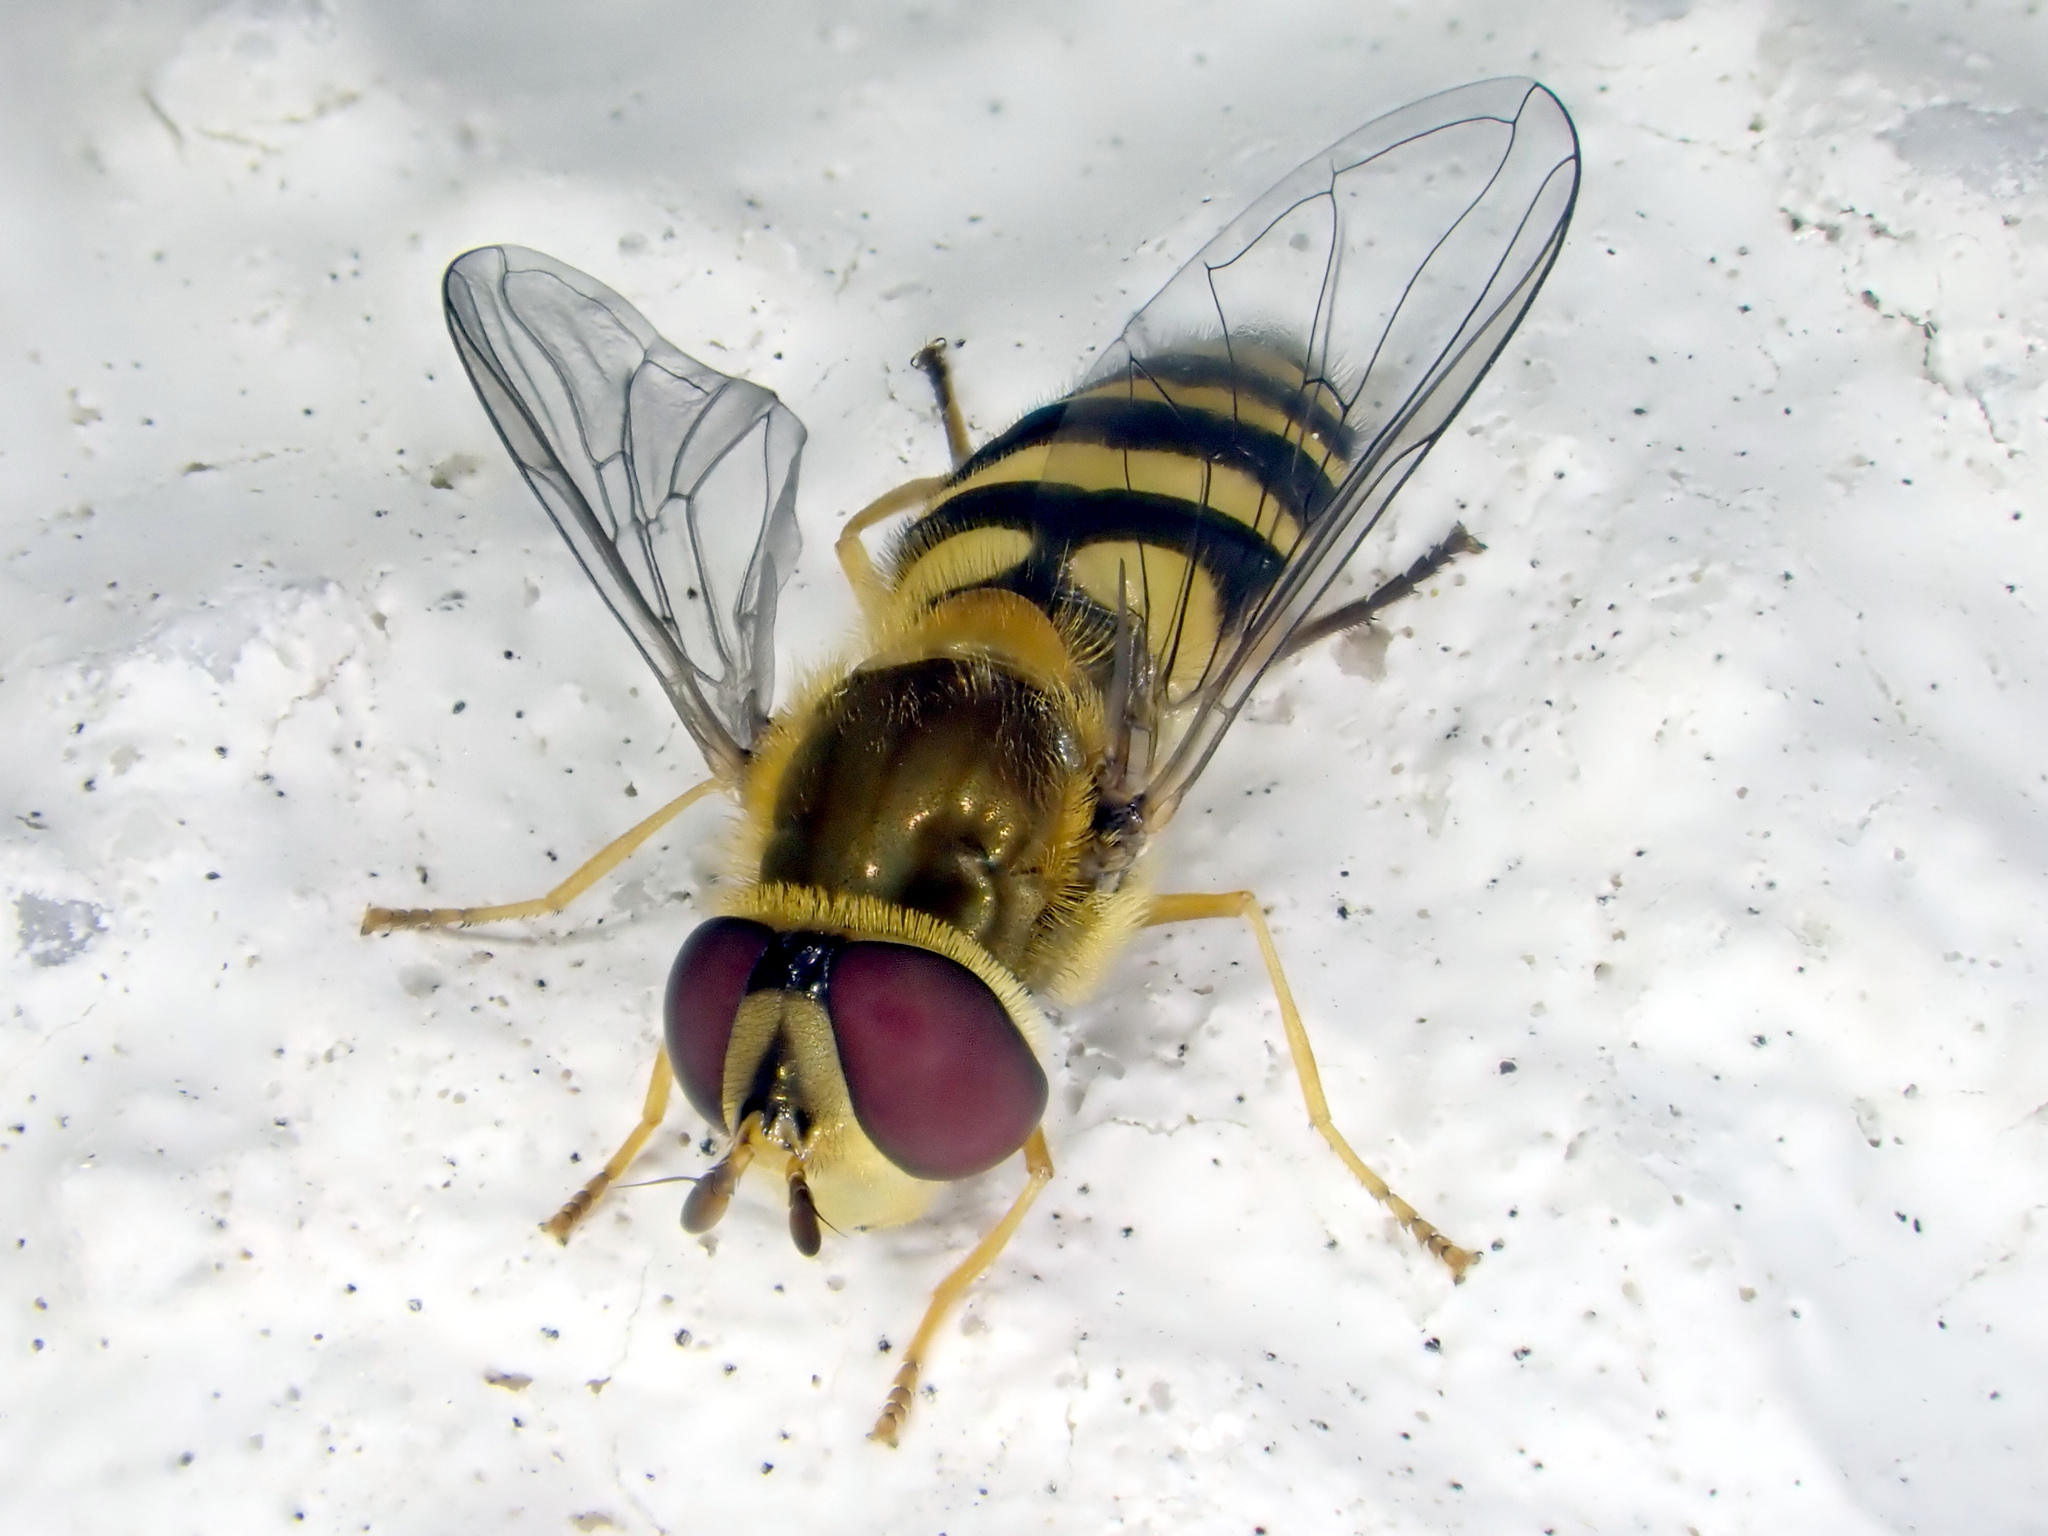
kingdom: Animalia
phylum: Arthropoda
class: Insecta
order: Diptera
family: Syrphidae
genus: Syrphus
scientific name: Syrphus
